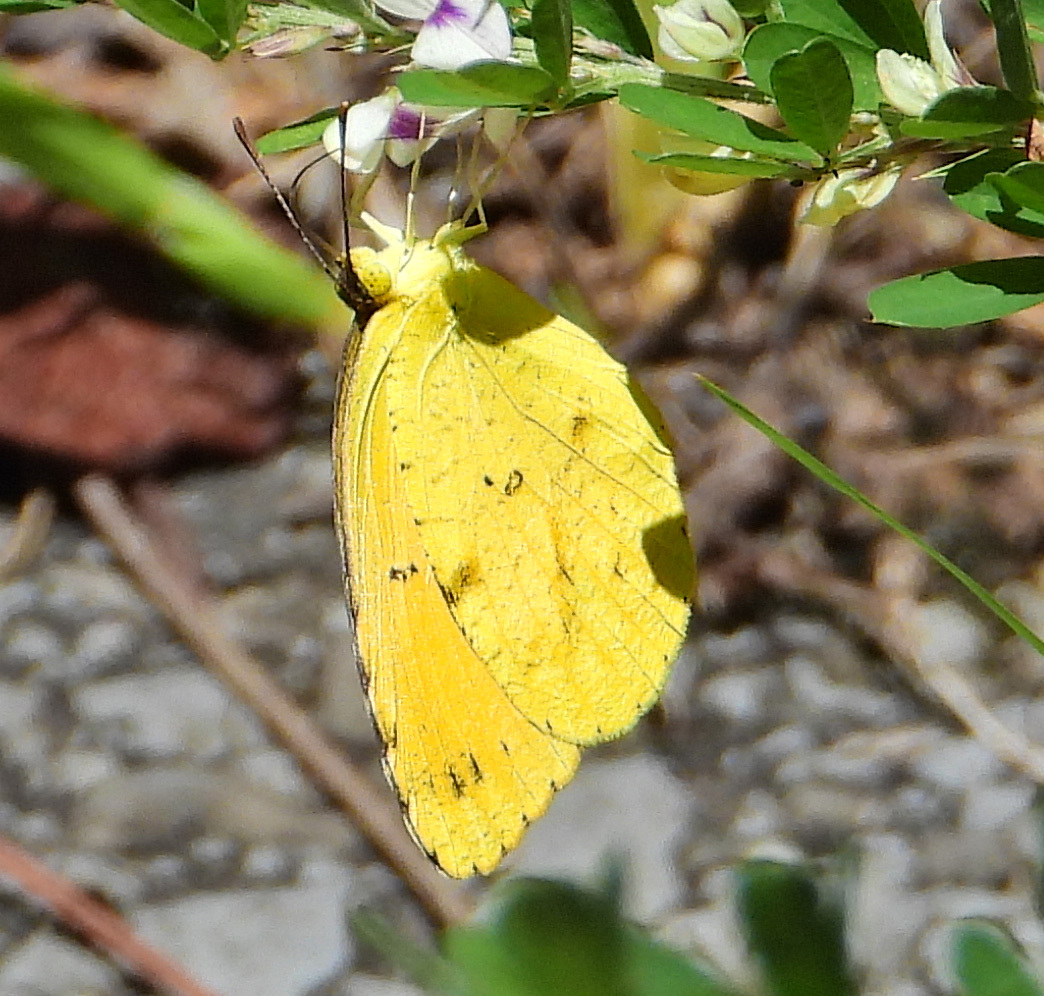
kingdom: Animalia
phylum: Arthropoda
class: Insecta
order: Lepidoptera
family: Pieridae
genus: Abaeis
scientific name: Abaeis nicippe
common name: Sleepy orange
